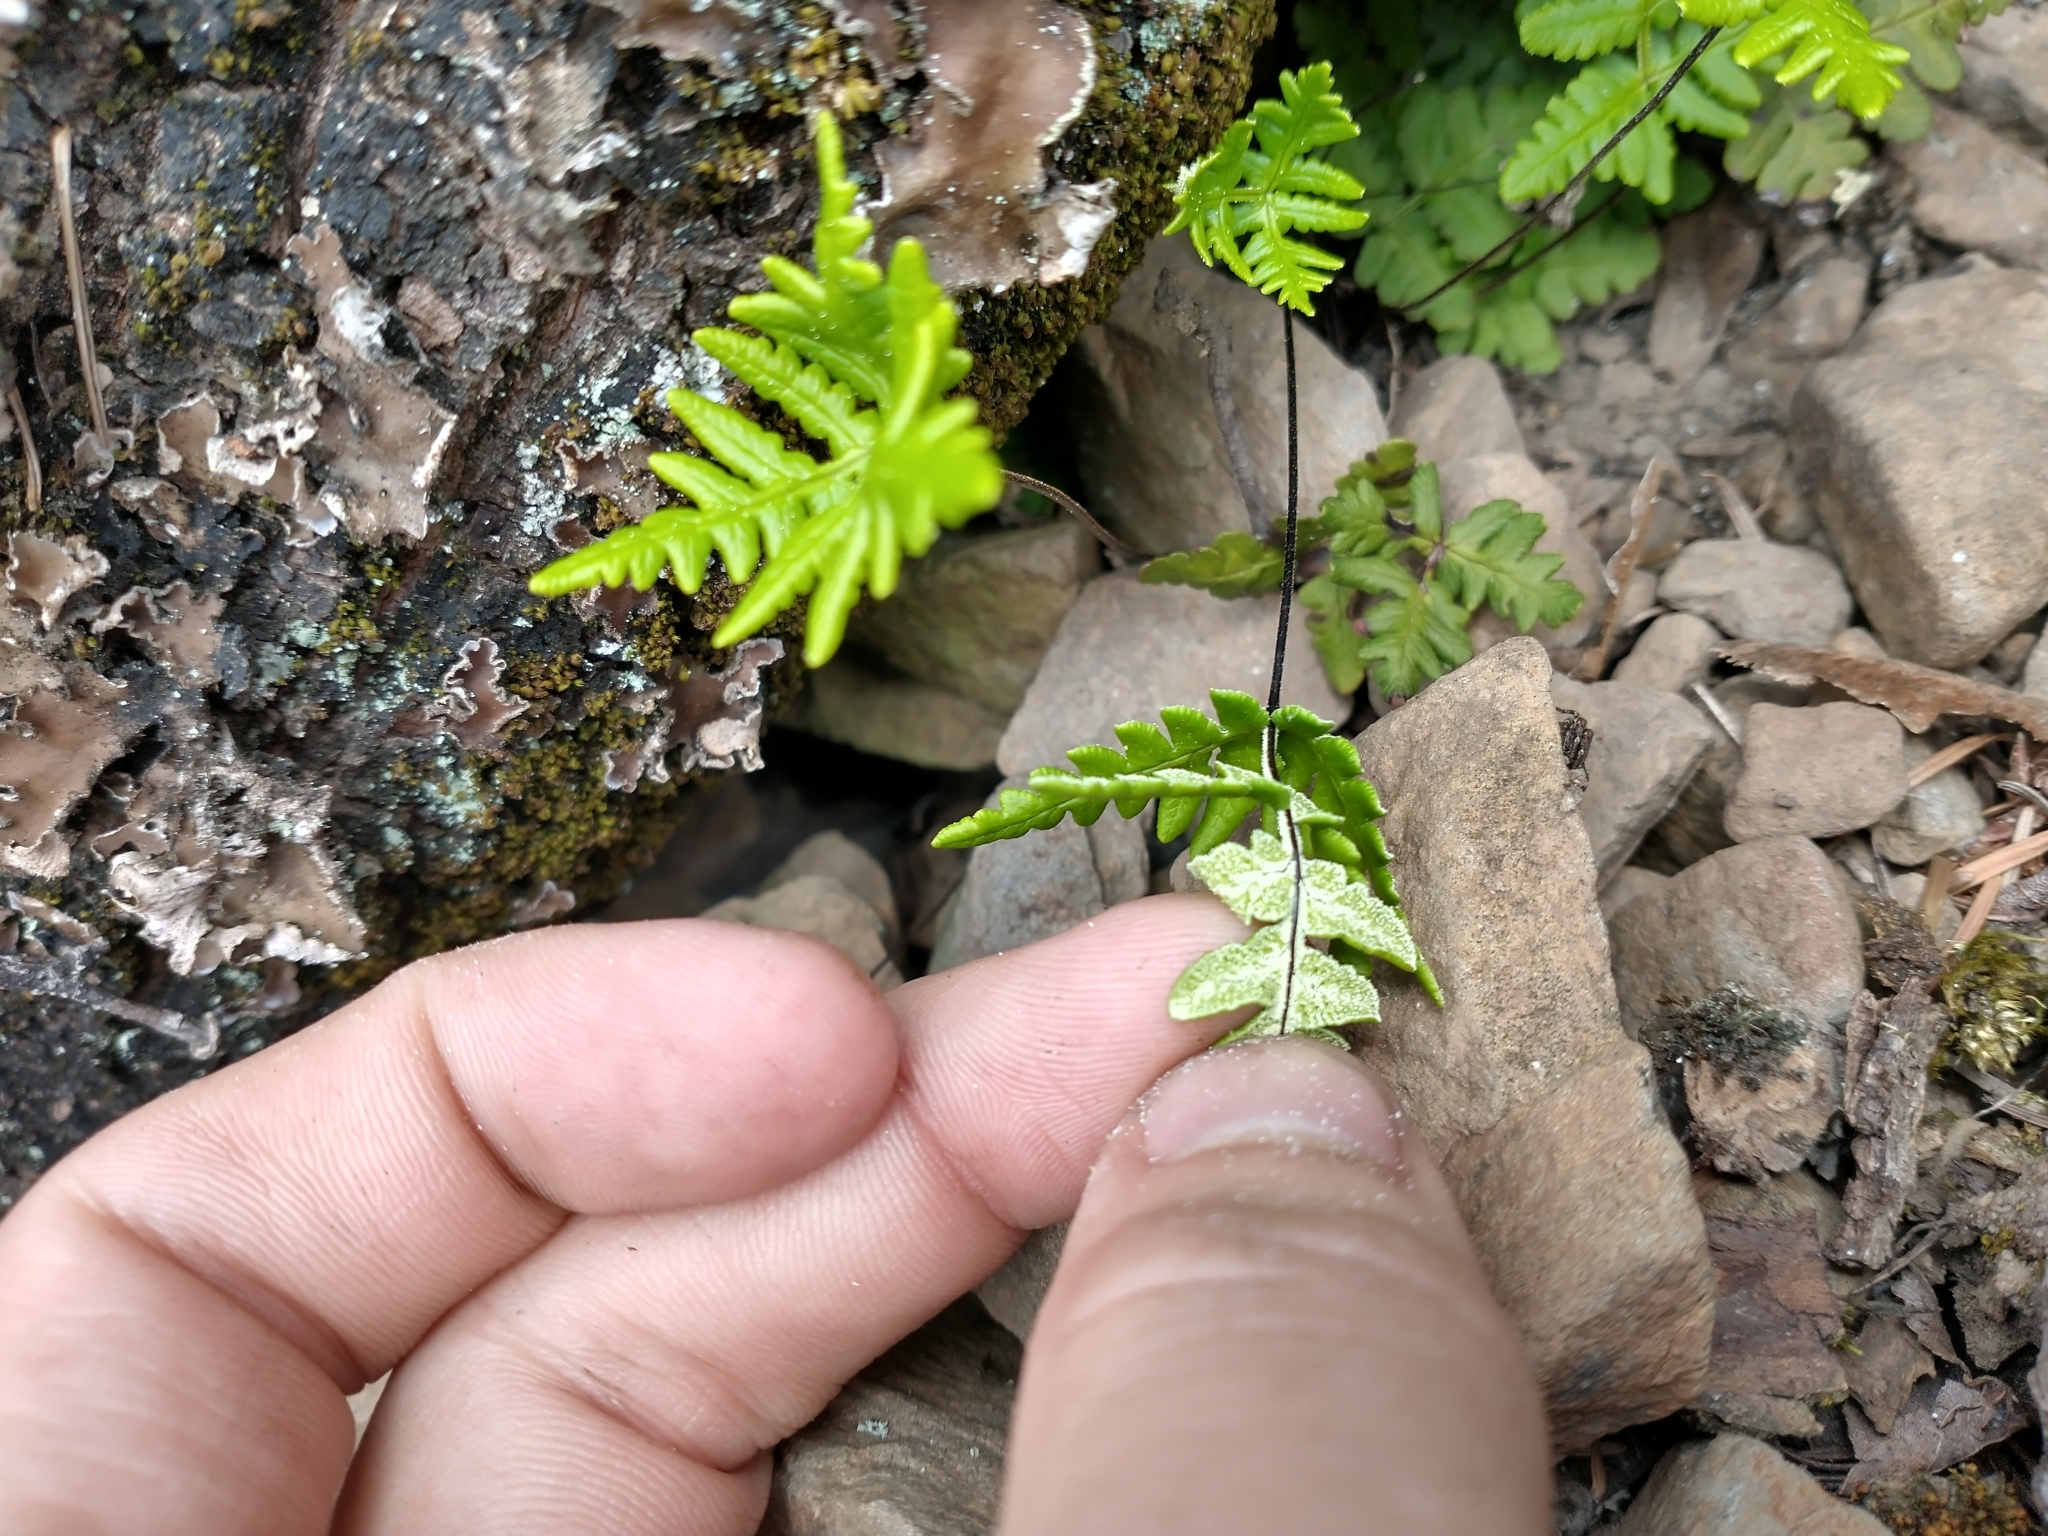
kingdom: Plantae
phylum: Tracheophyta
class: Polypodiopsida
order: Polypodiales
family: Pteridaceae
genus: Pentagramma
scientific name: Pentagramma triangularis
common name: Gold fern
